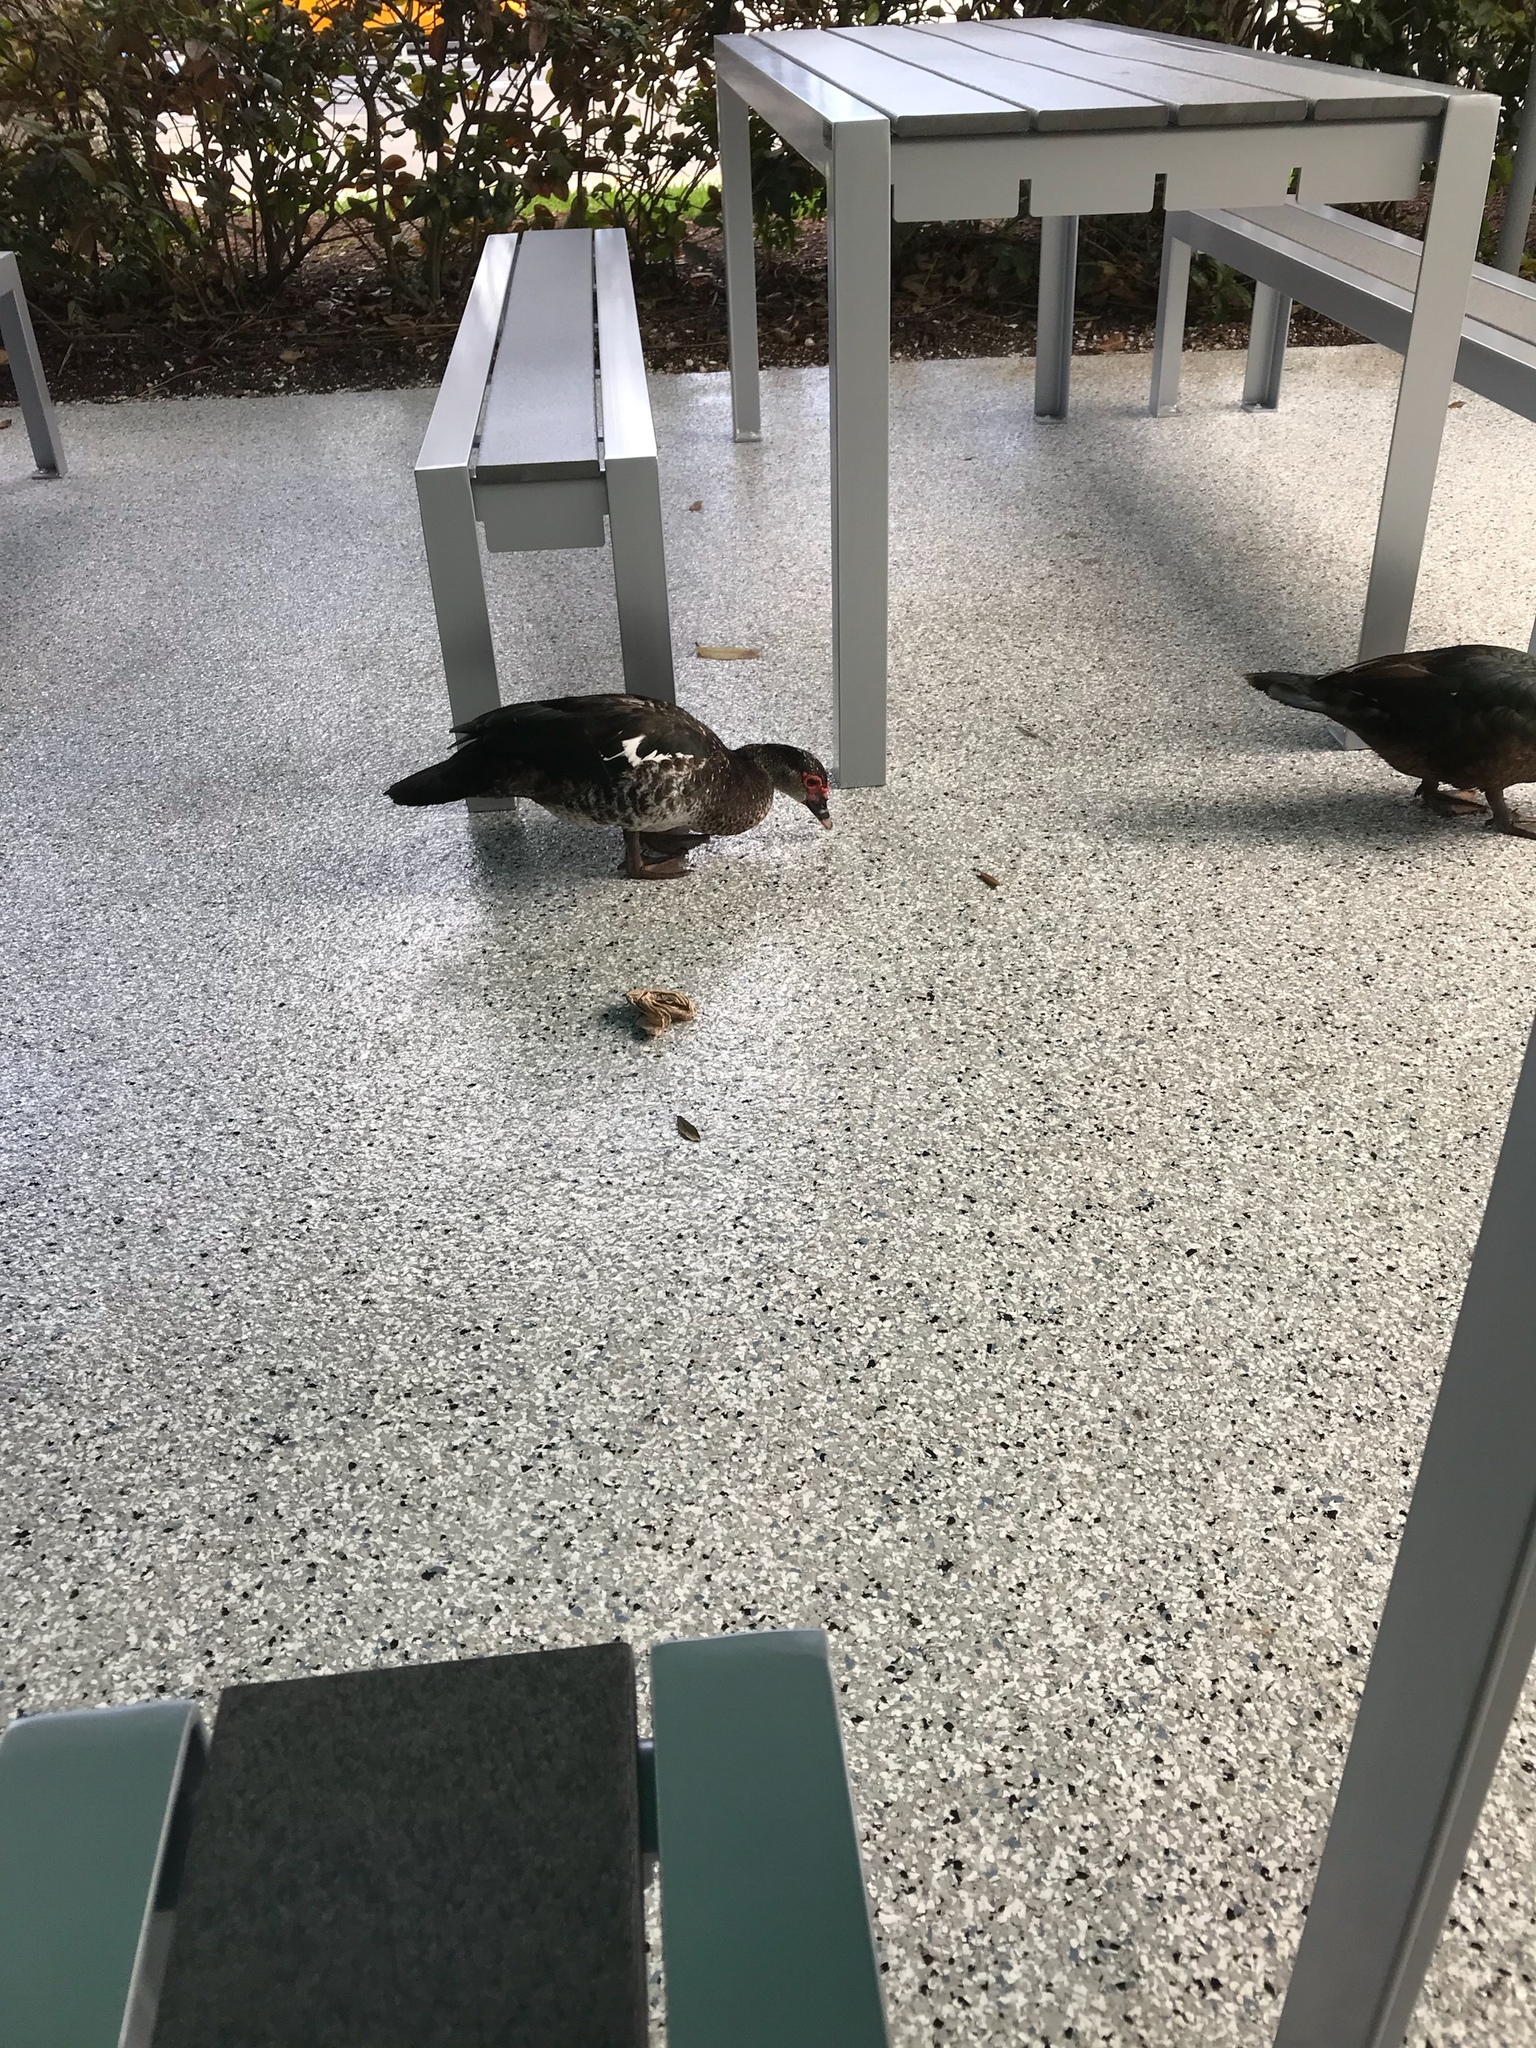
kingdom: Animalia
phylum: Chordata
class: Aves
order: Anseriformes
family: Anatidae
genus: Cairina
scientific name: Cairina moschata
